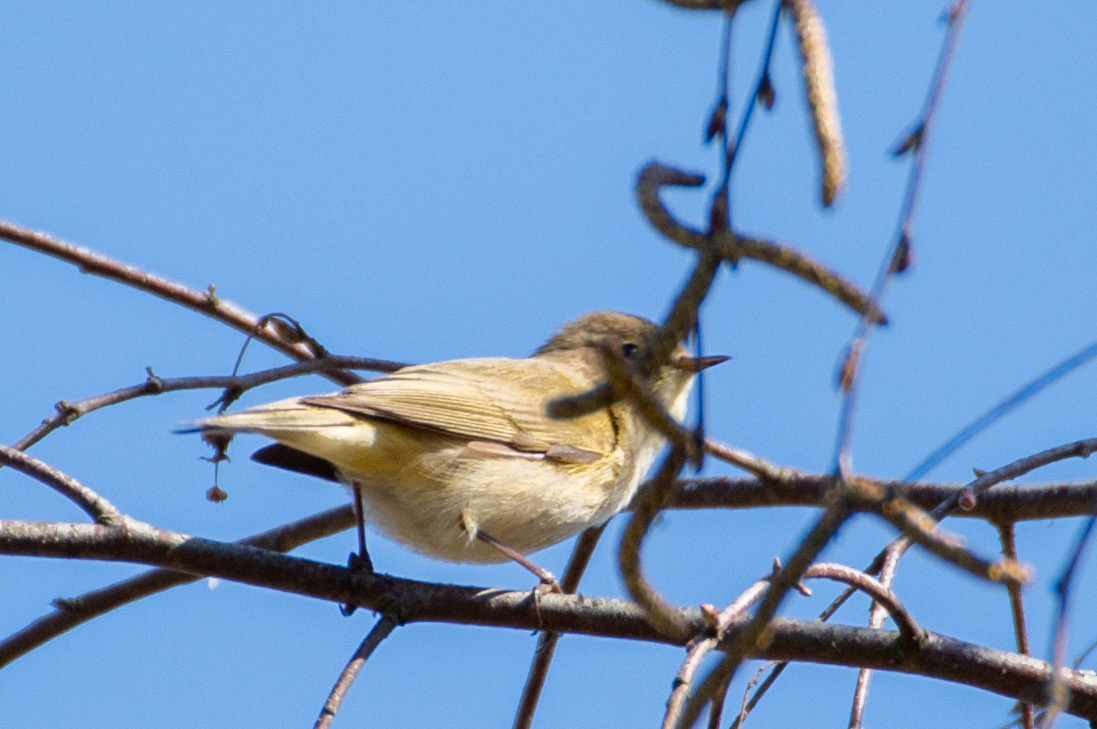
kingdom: Animalia
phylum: Chordata
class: Aves
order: Passeriformes
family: Phylloscopidae
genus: Phylloscopus
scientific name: Phylloscopus collybita
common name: Common chiffchaff
